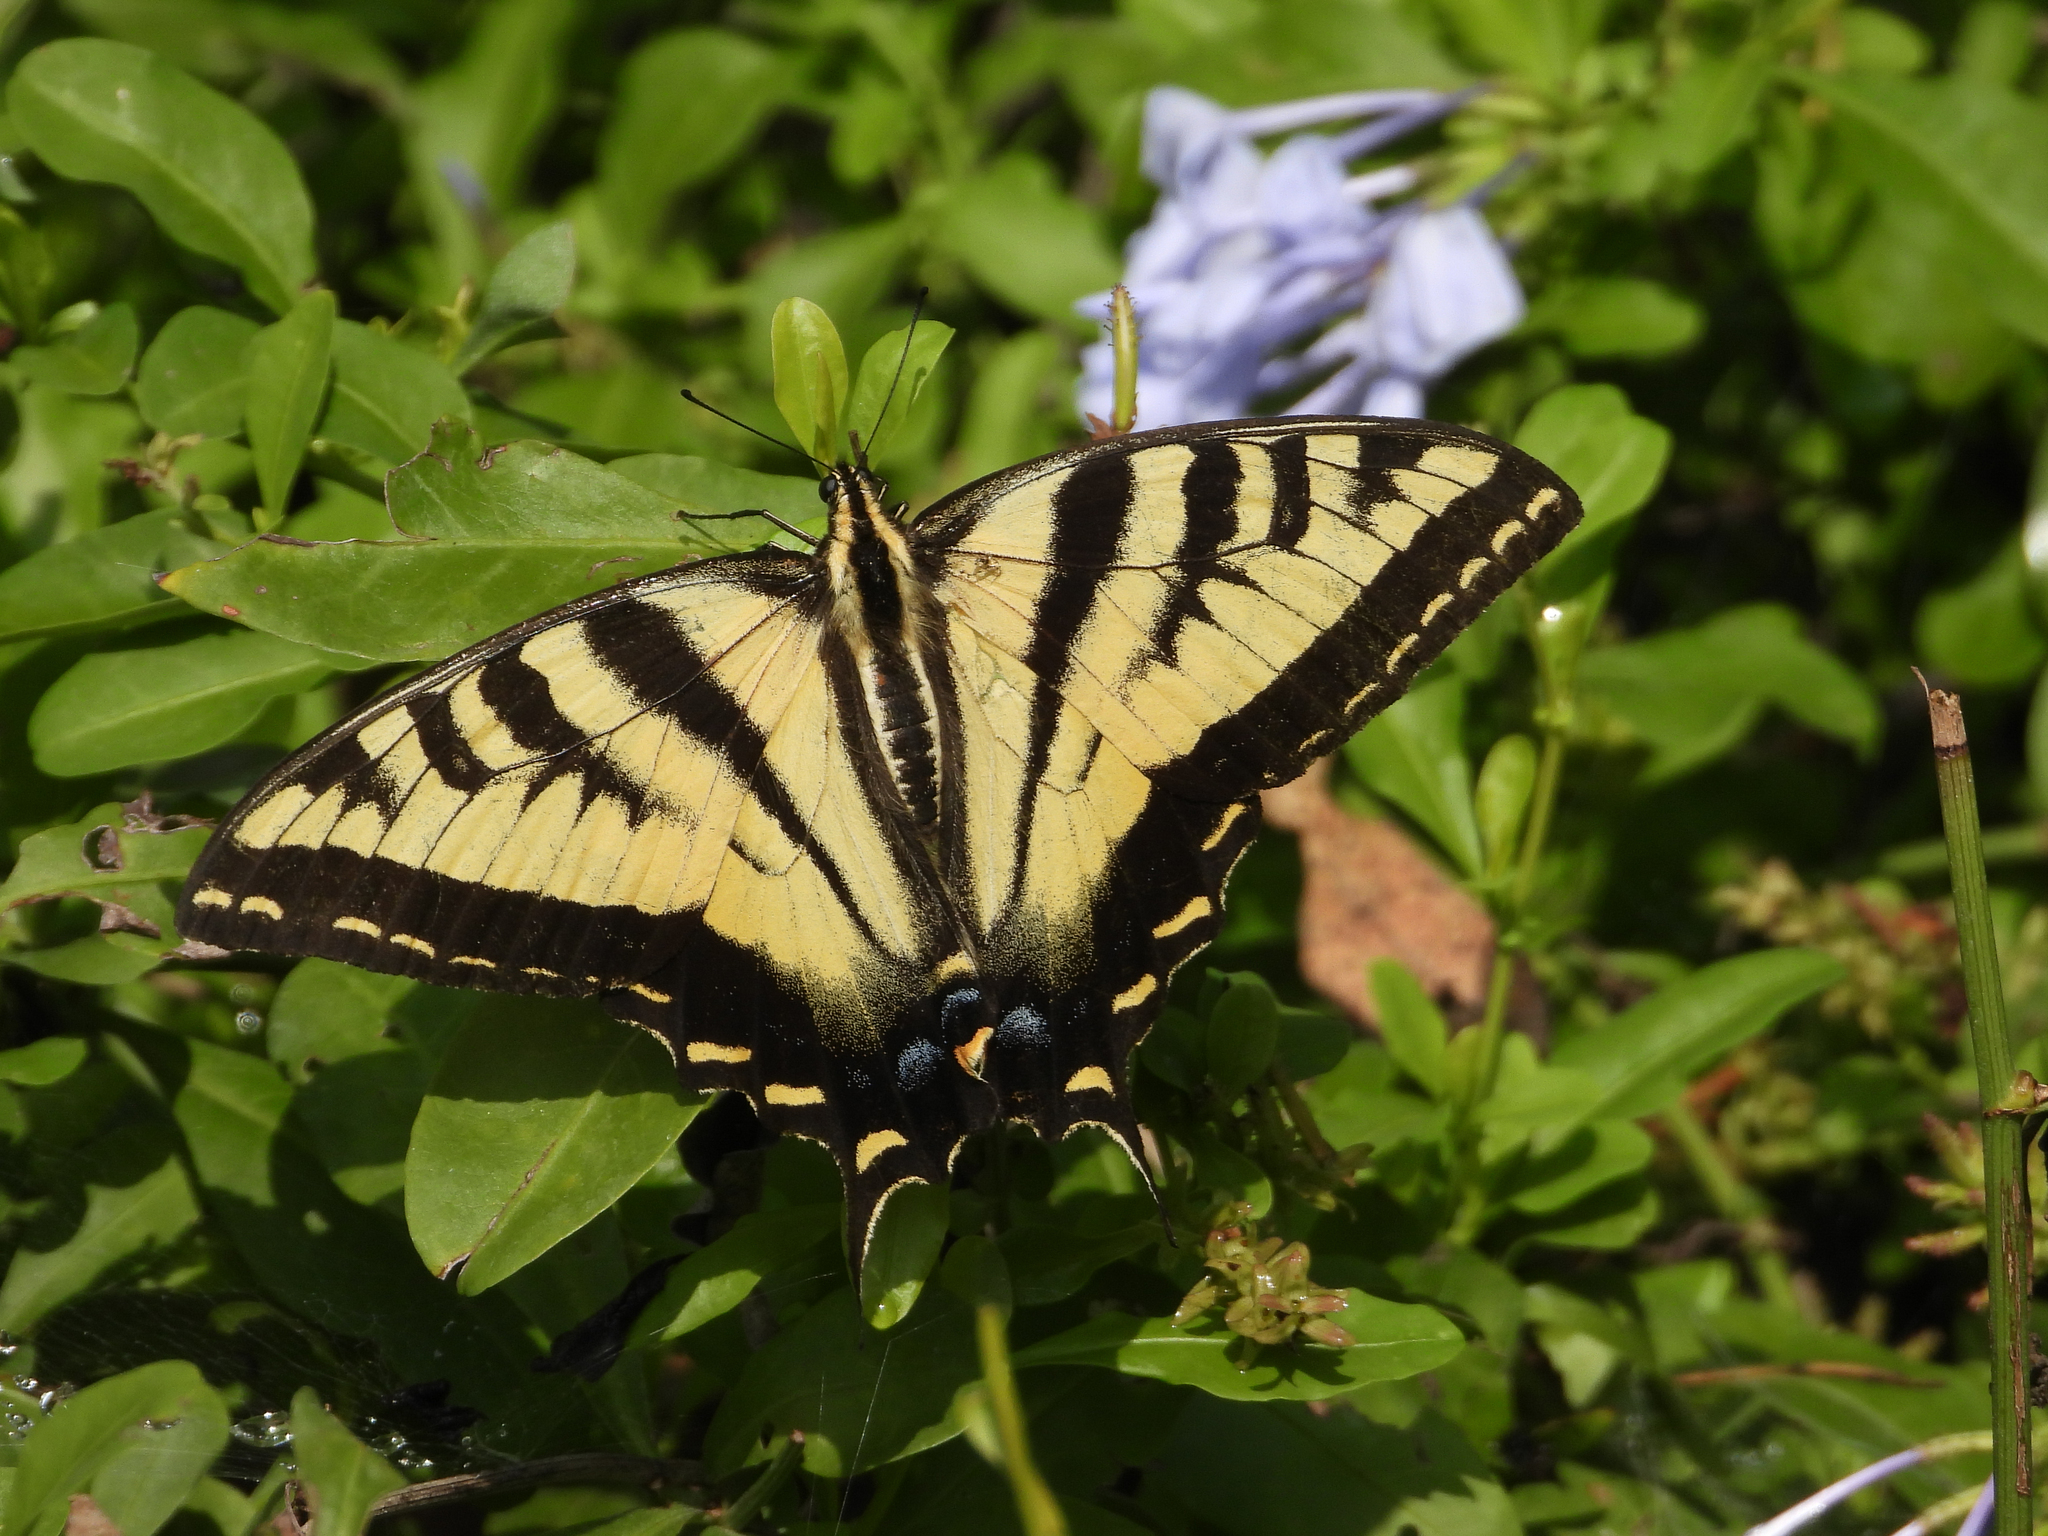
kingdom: Animalia
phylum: Arthropoda
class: Insecta
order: Lepidoptera
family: Papilionidae
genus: Papilio
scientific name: Papilio rutulus
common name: Western tiger swallowtail
